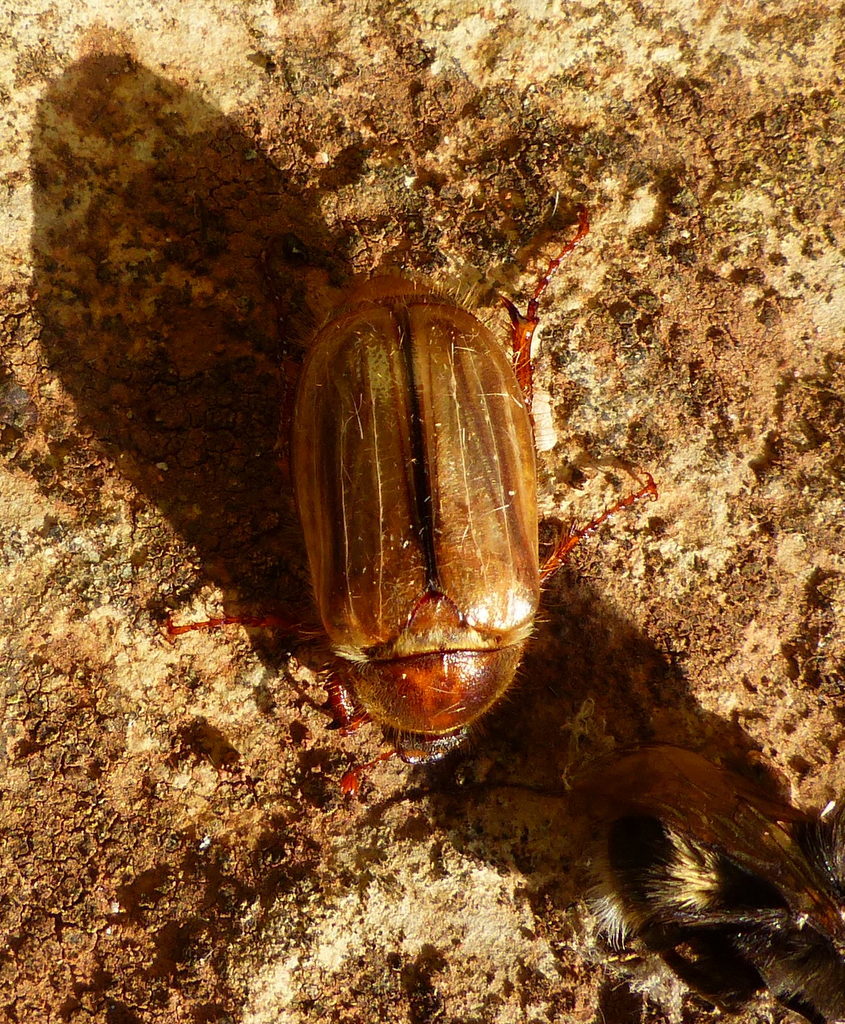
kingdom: Animalia
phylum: Arthropoda
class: Insecta
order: Coleoptera
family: Scarabaeidae
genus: Amphimallon
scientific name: Amphimallon solstitiale
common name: Summer chafer
